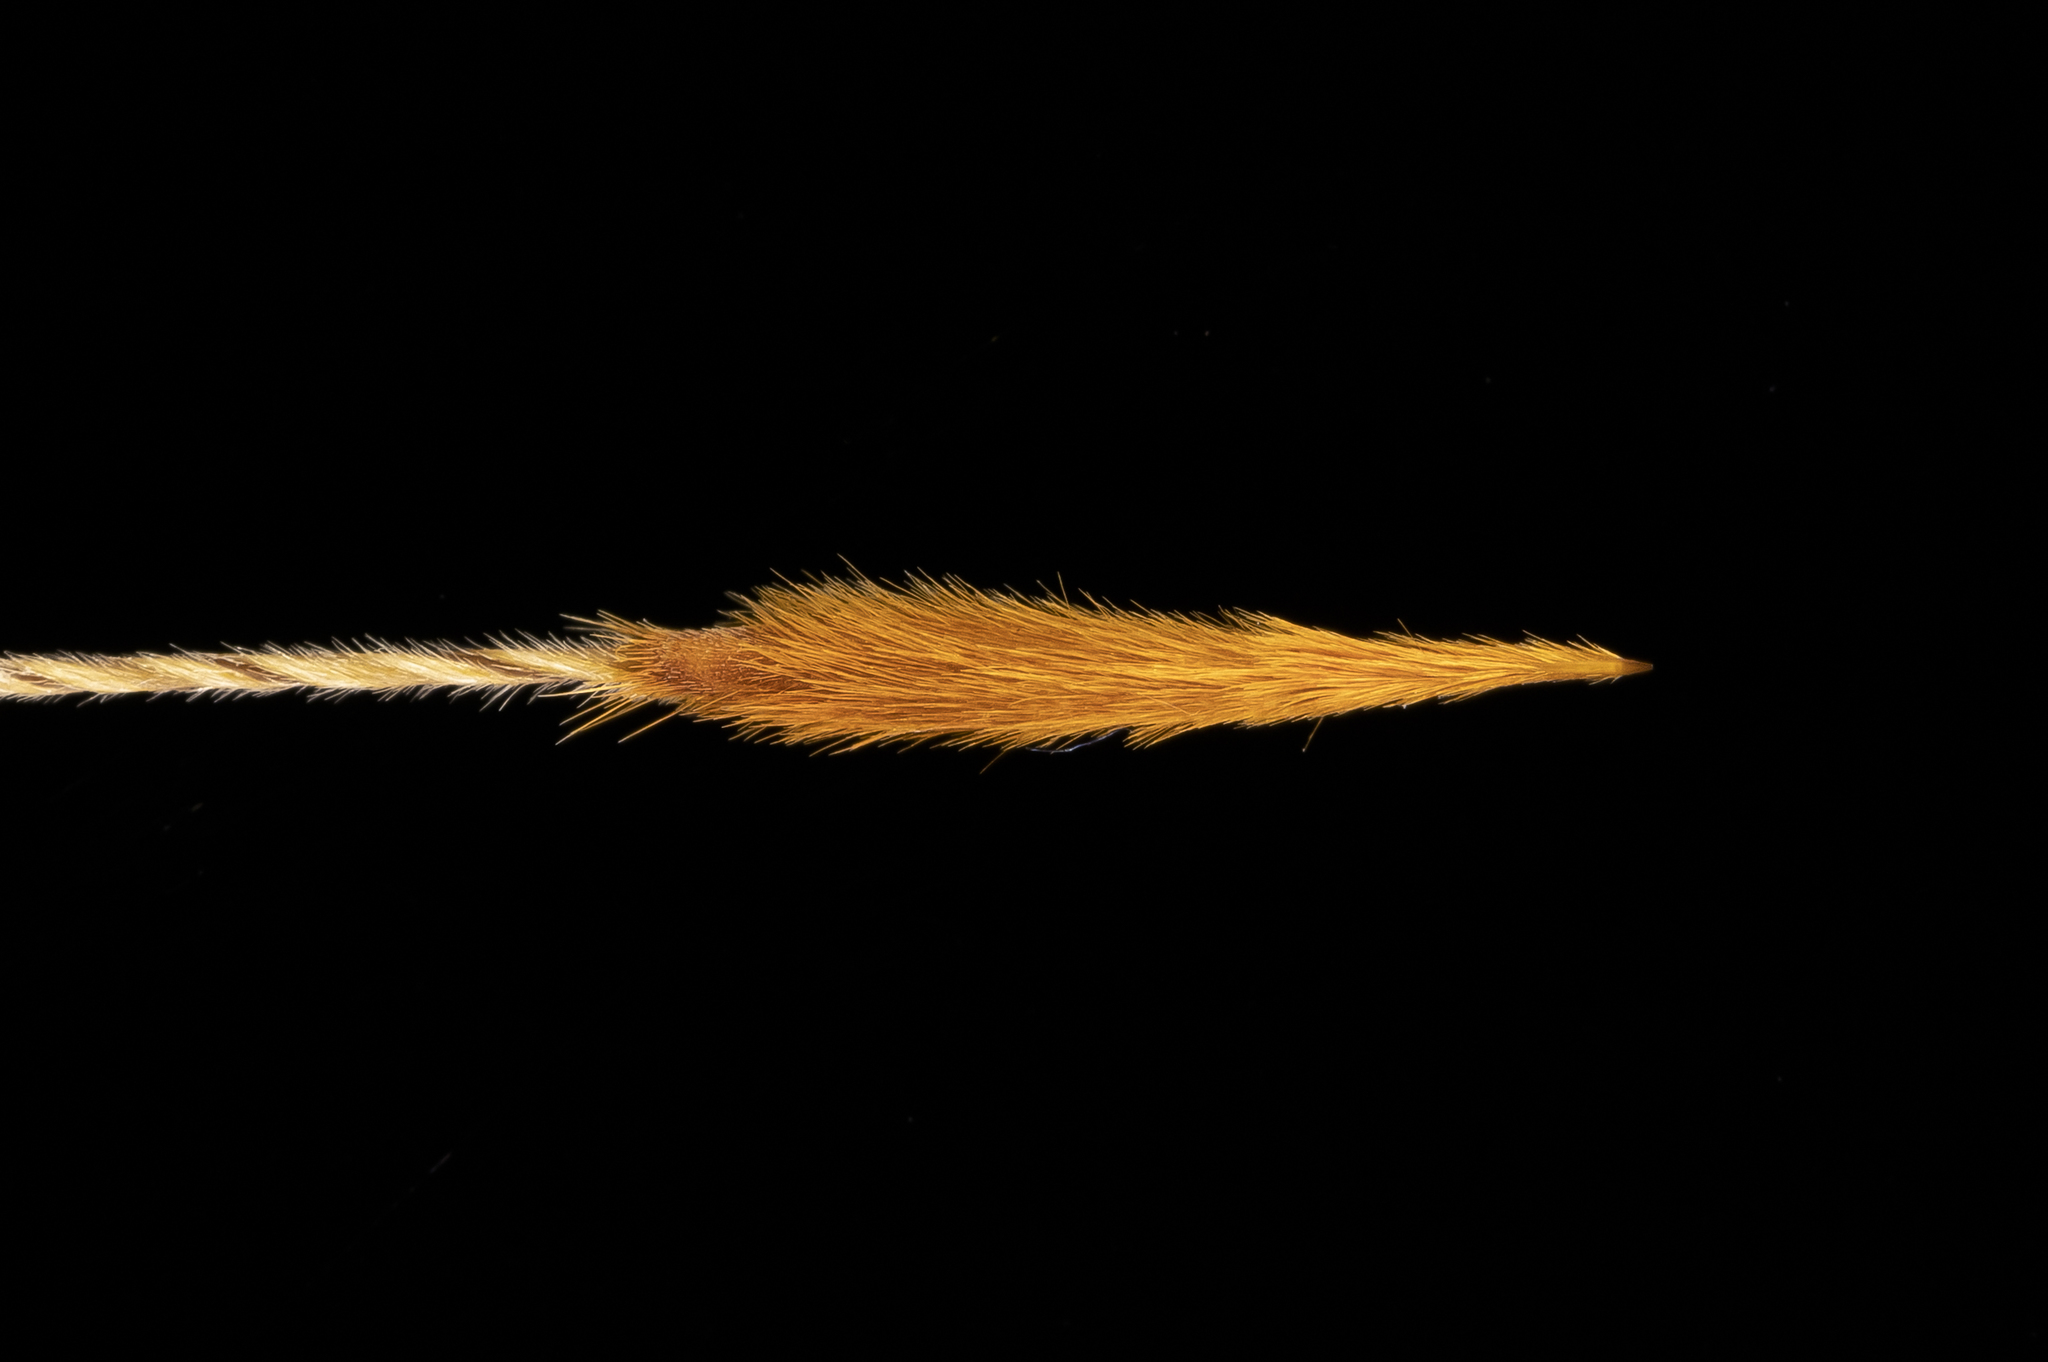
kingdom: Plantae
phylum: Tracheophyta
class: Liliopsida
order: Poales
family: Poaceae
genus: Austrostipa
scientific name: Austrostipa eremophila
